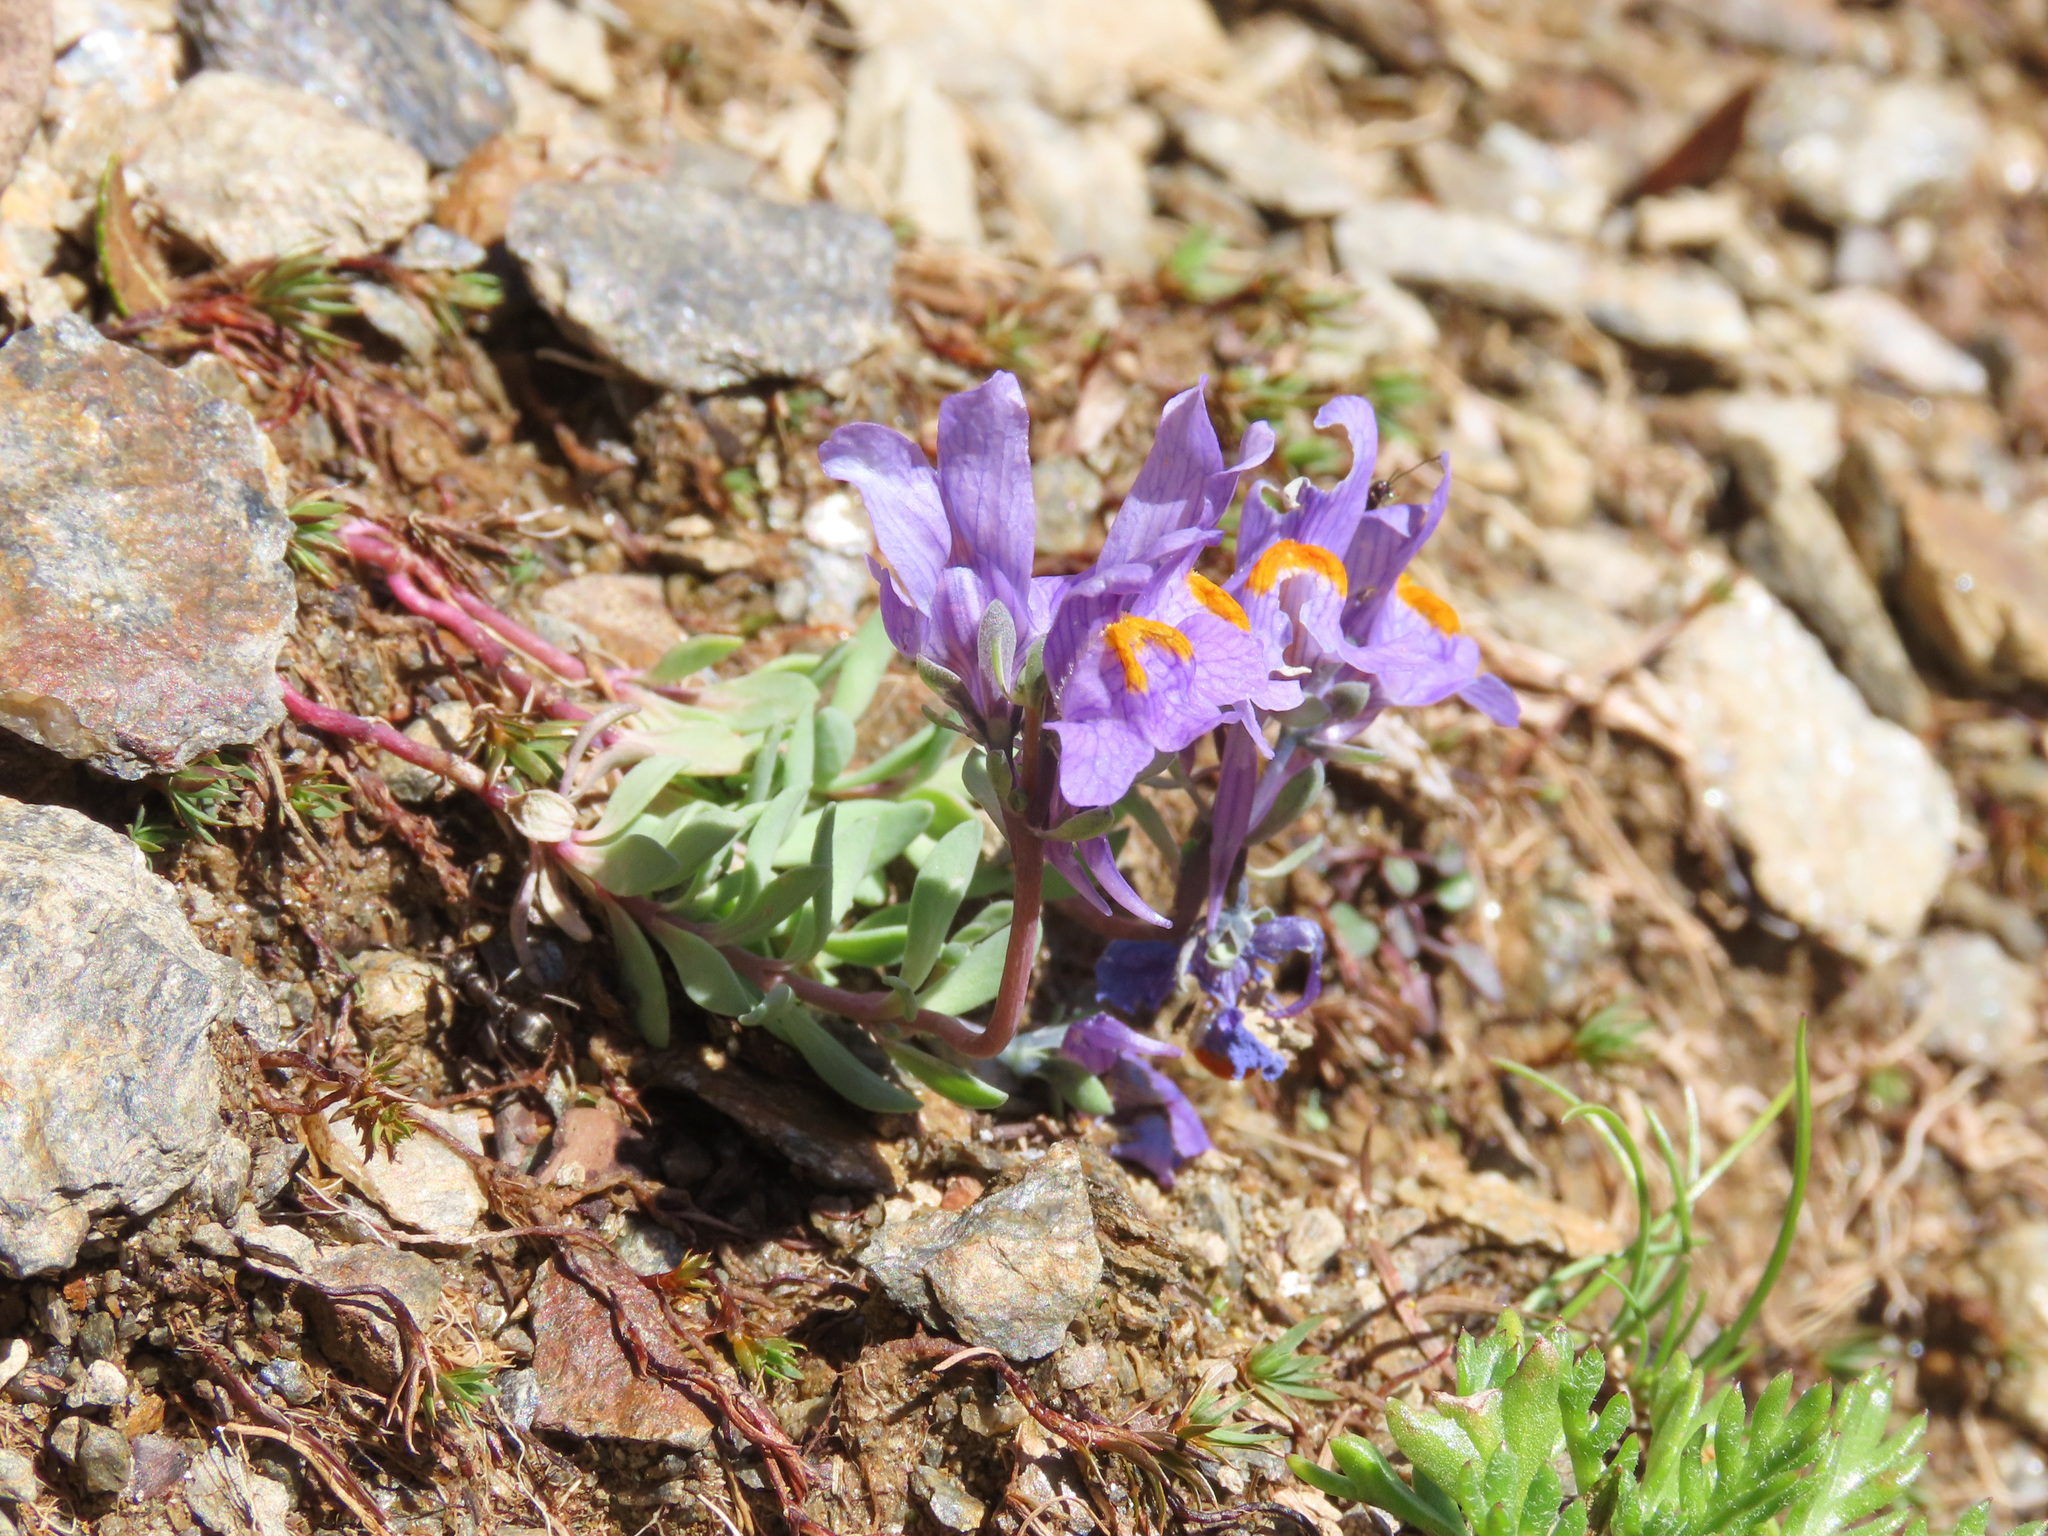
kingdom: Plantae
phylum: Tracheophyta
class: Magnoliopsida
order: Lamiales
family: Plantaginaceae
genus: Linaria
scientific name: Linaria alpina
